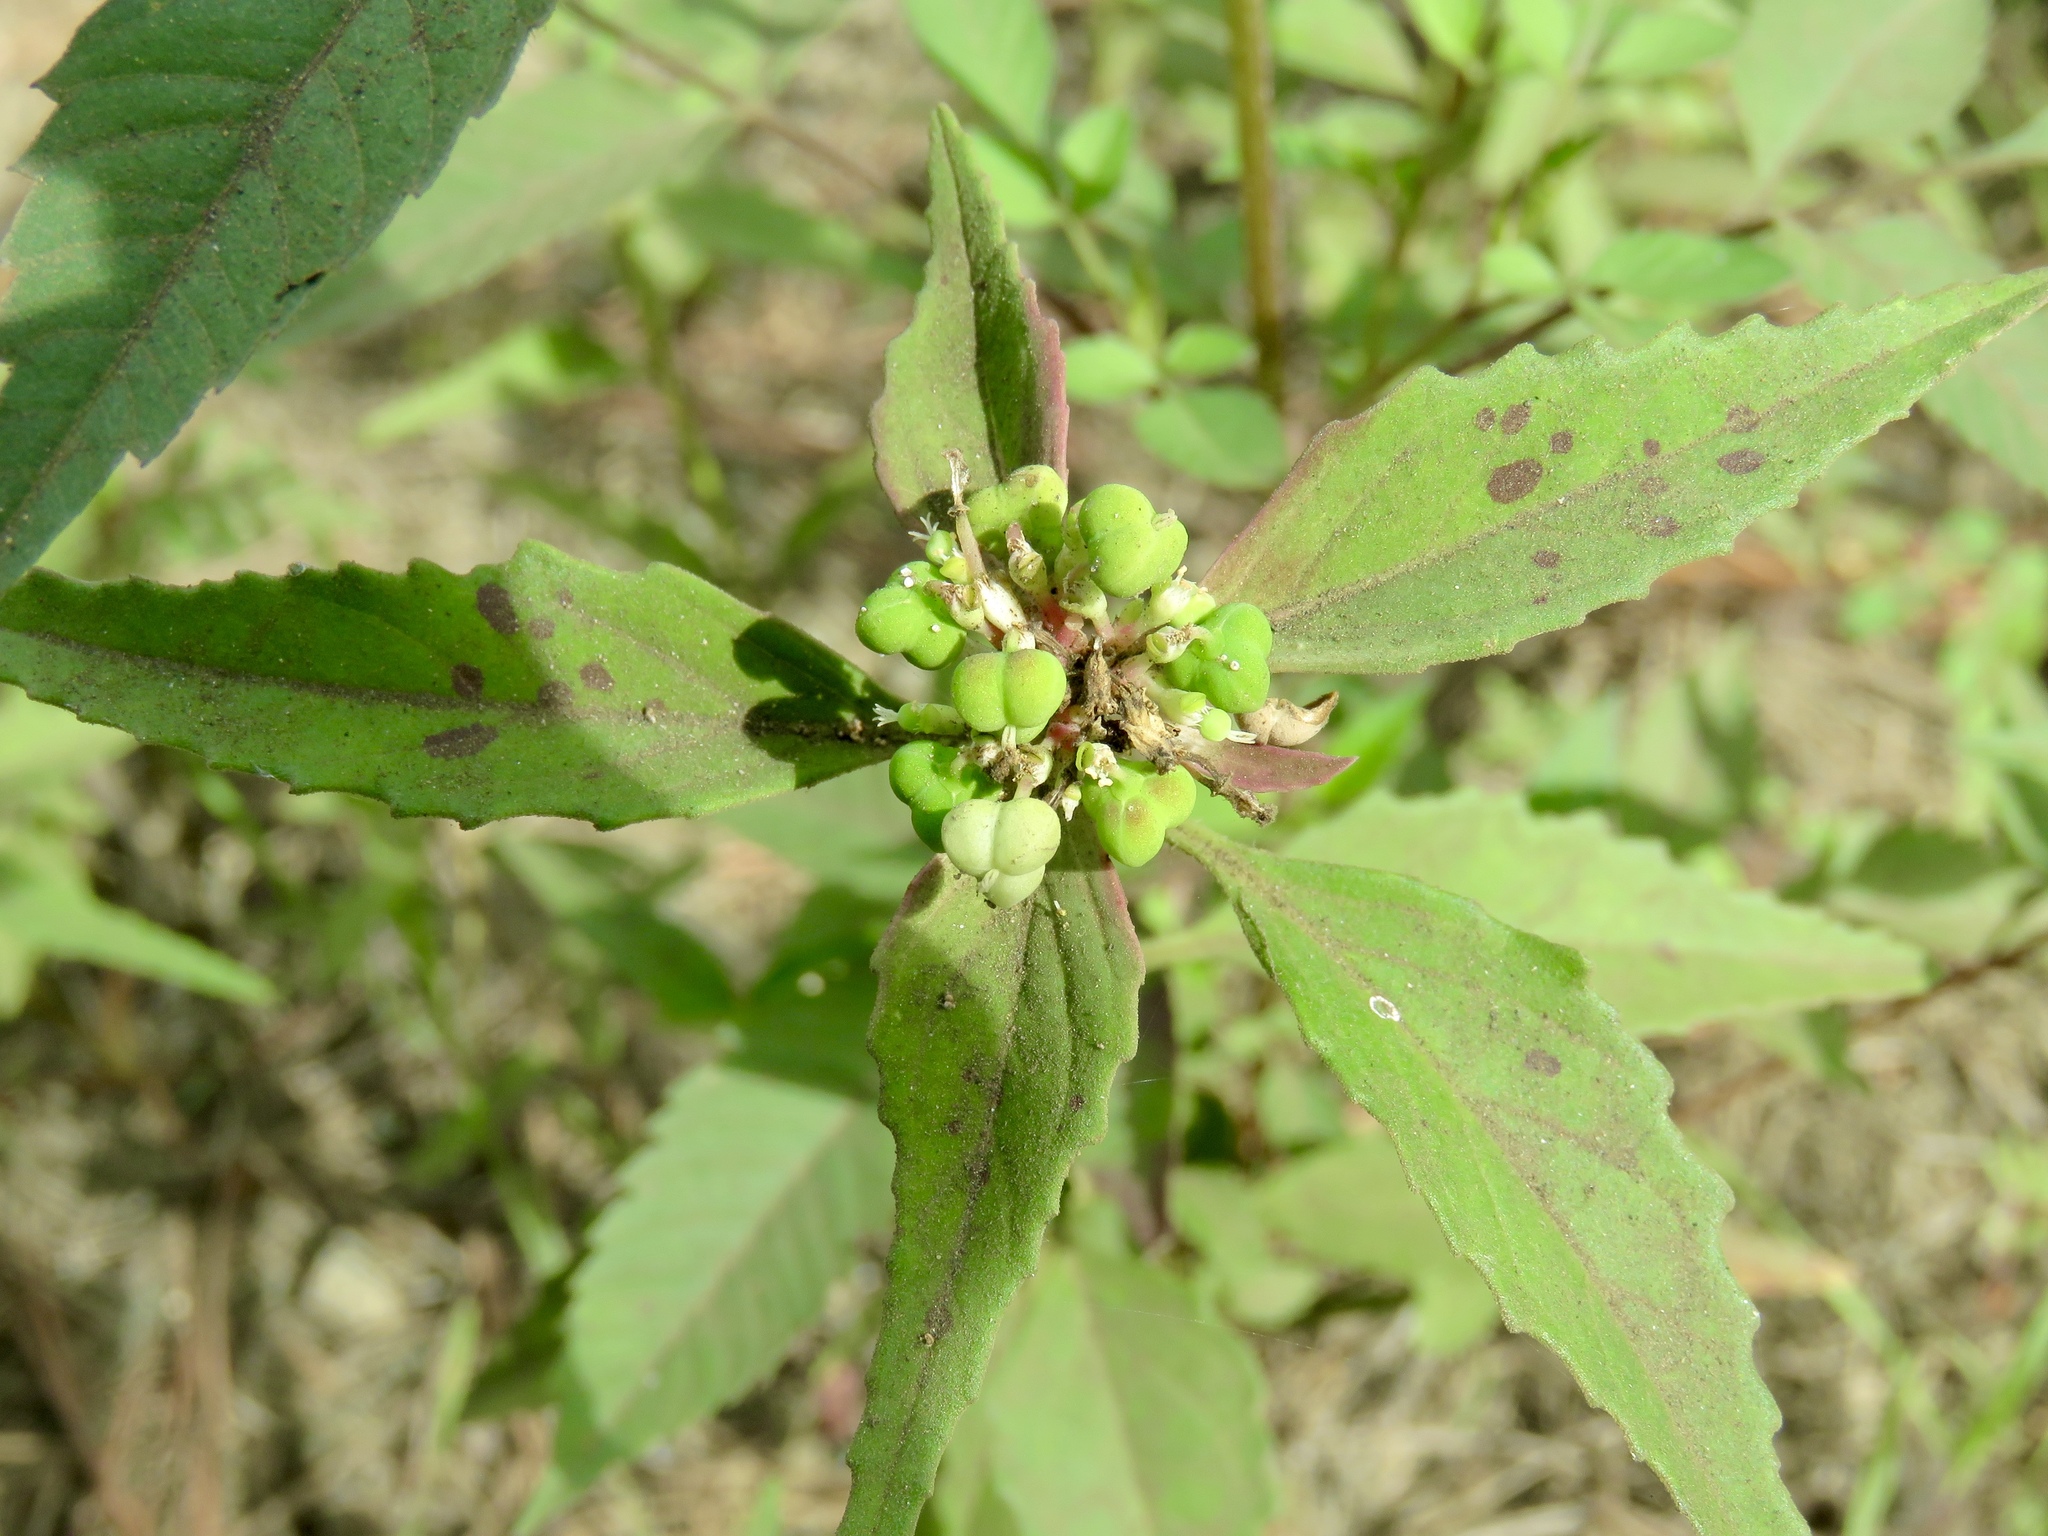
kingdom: Plantae
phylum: Tracheophyta
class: Magnoliopsida
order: Malpighiales
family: Euphorbiaceae
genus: Euphorbia
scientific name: Euphorbia dentata
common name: Dentate spurge
